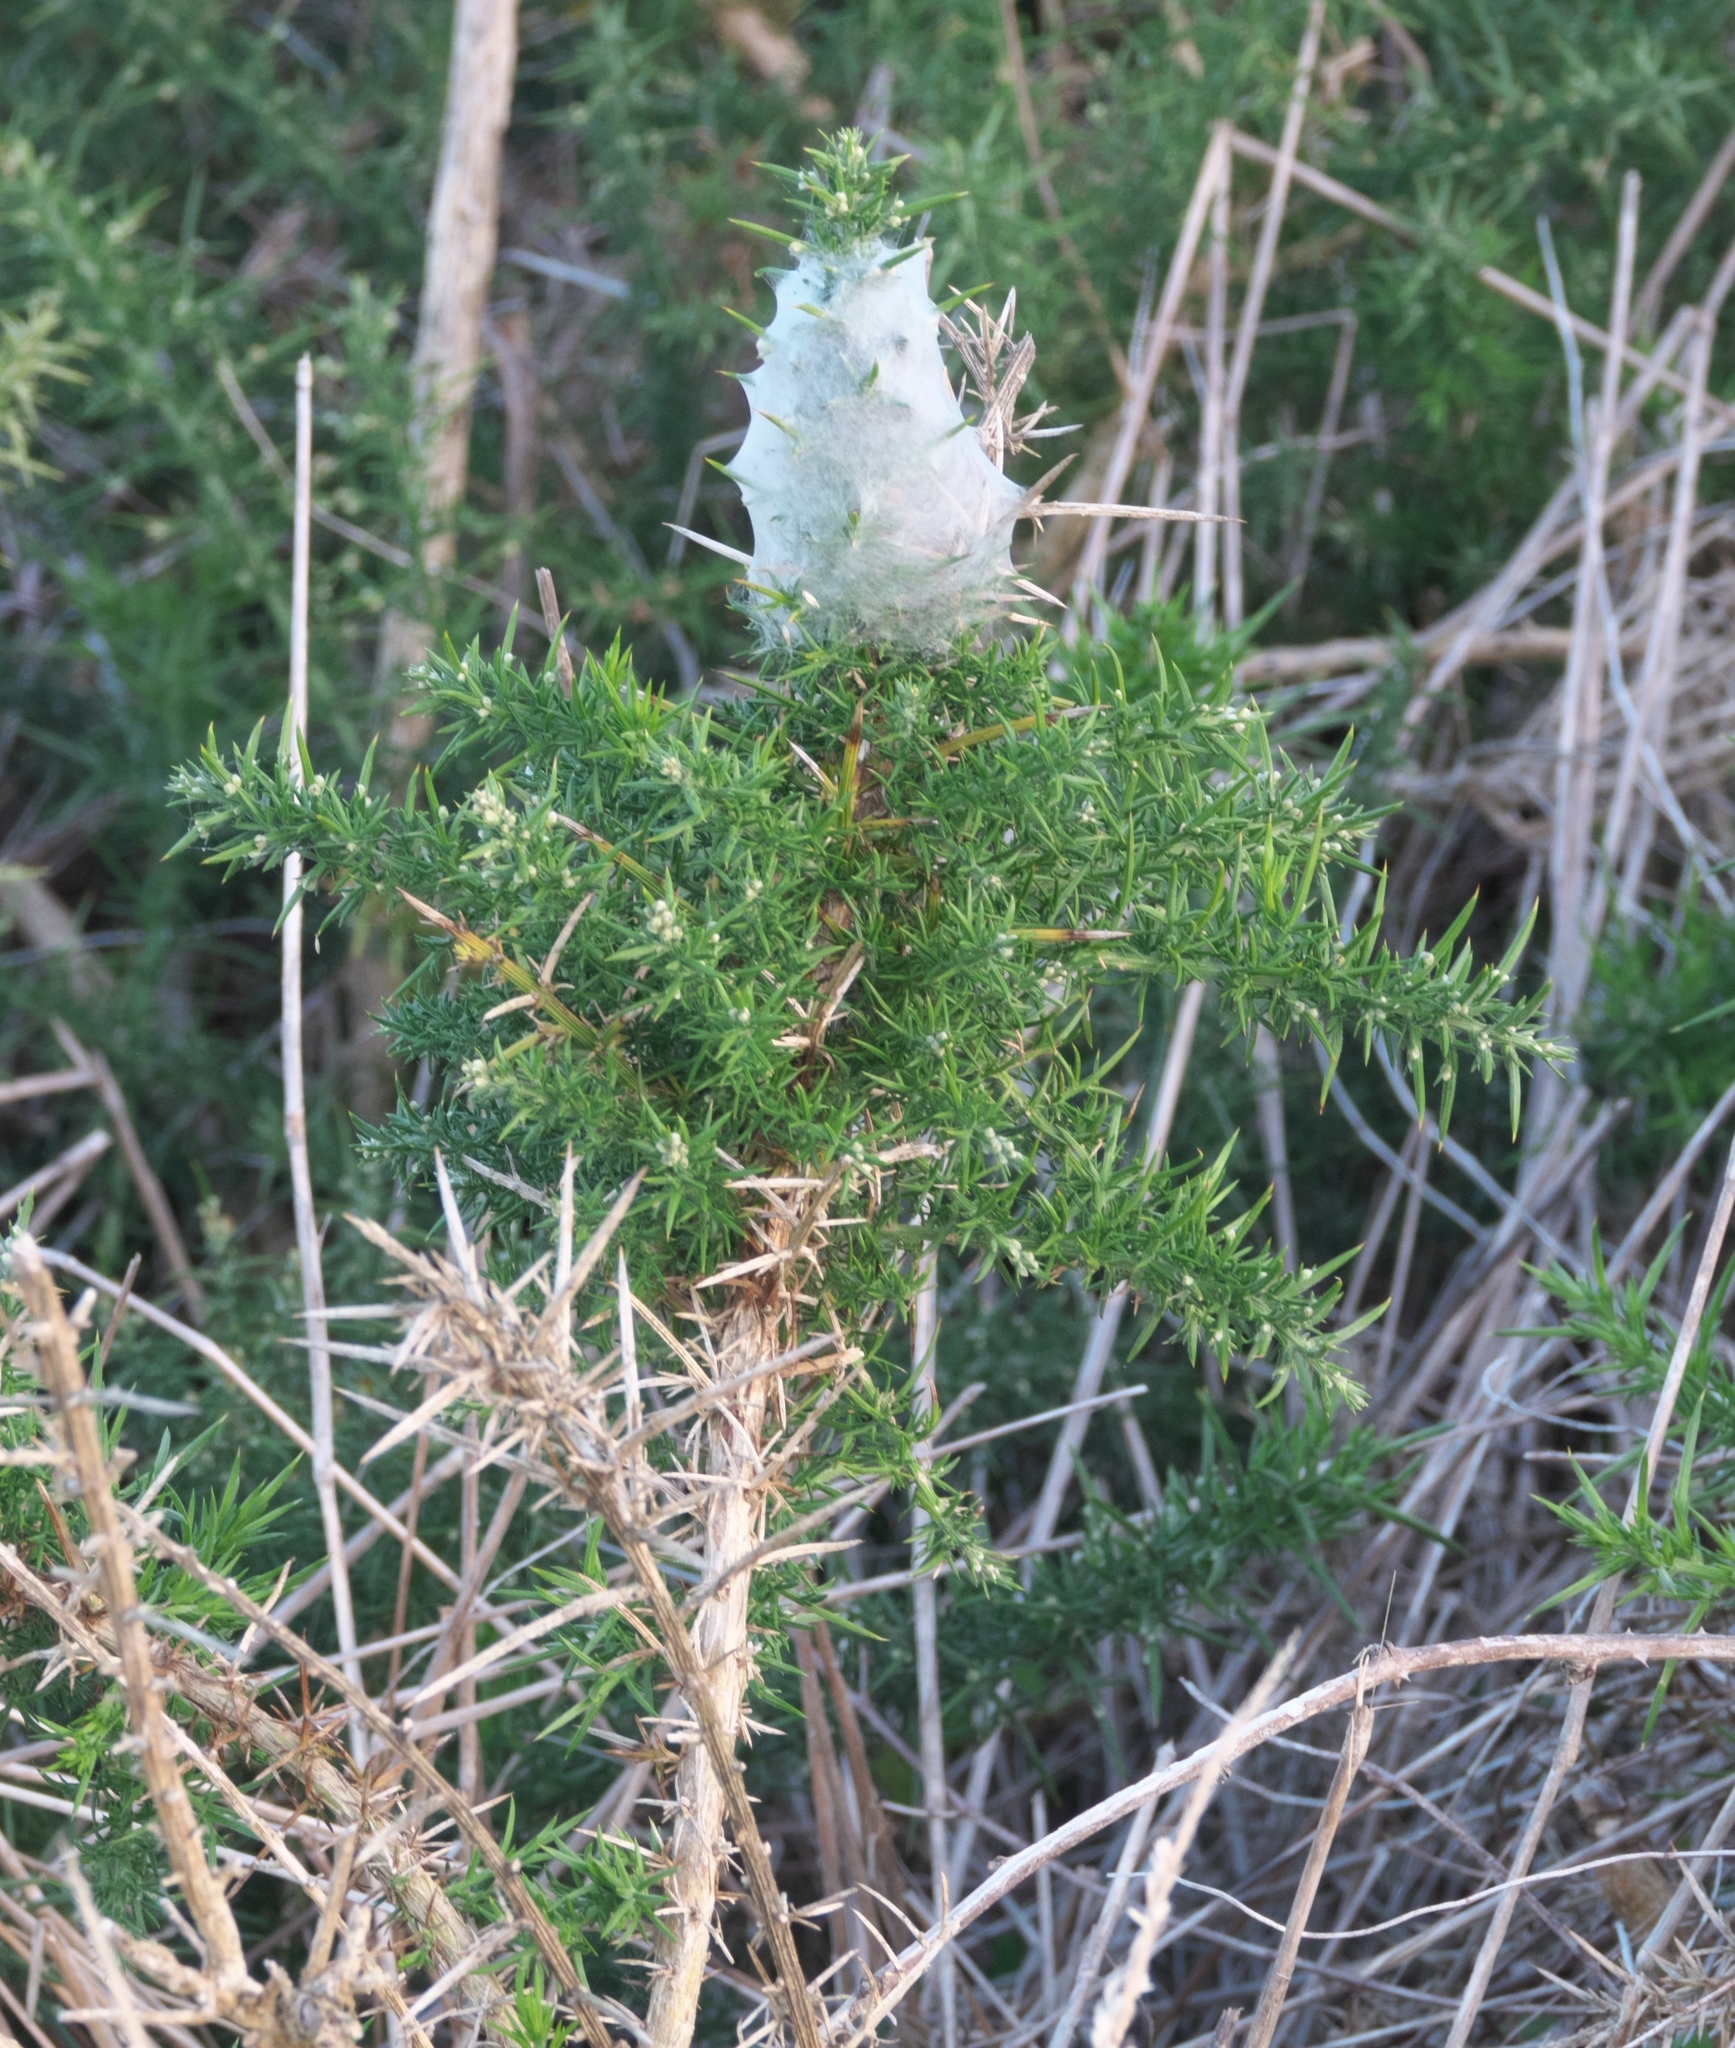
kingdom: Plantae
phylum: Tracheophyta
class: Magnoliopsida
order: Fabales
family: Fabaceae
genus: Ulex
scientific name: Ulex europaeus
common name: Common gorse
